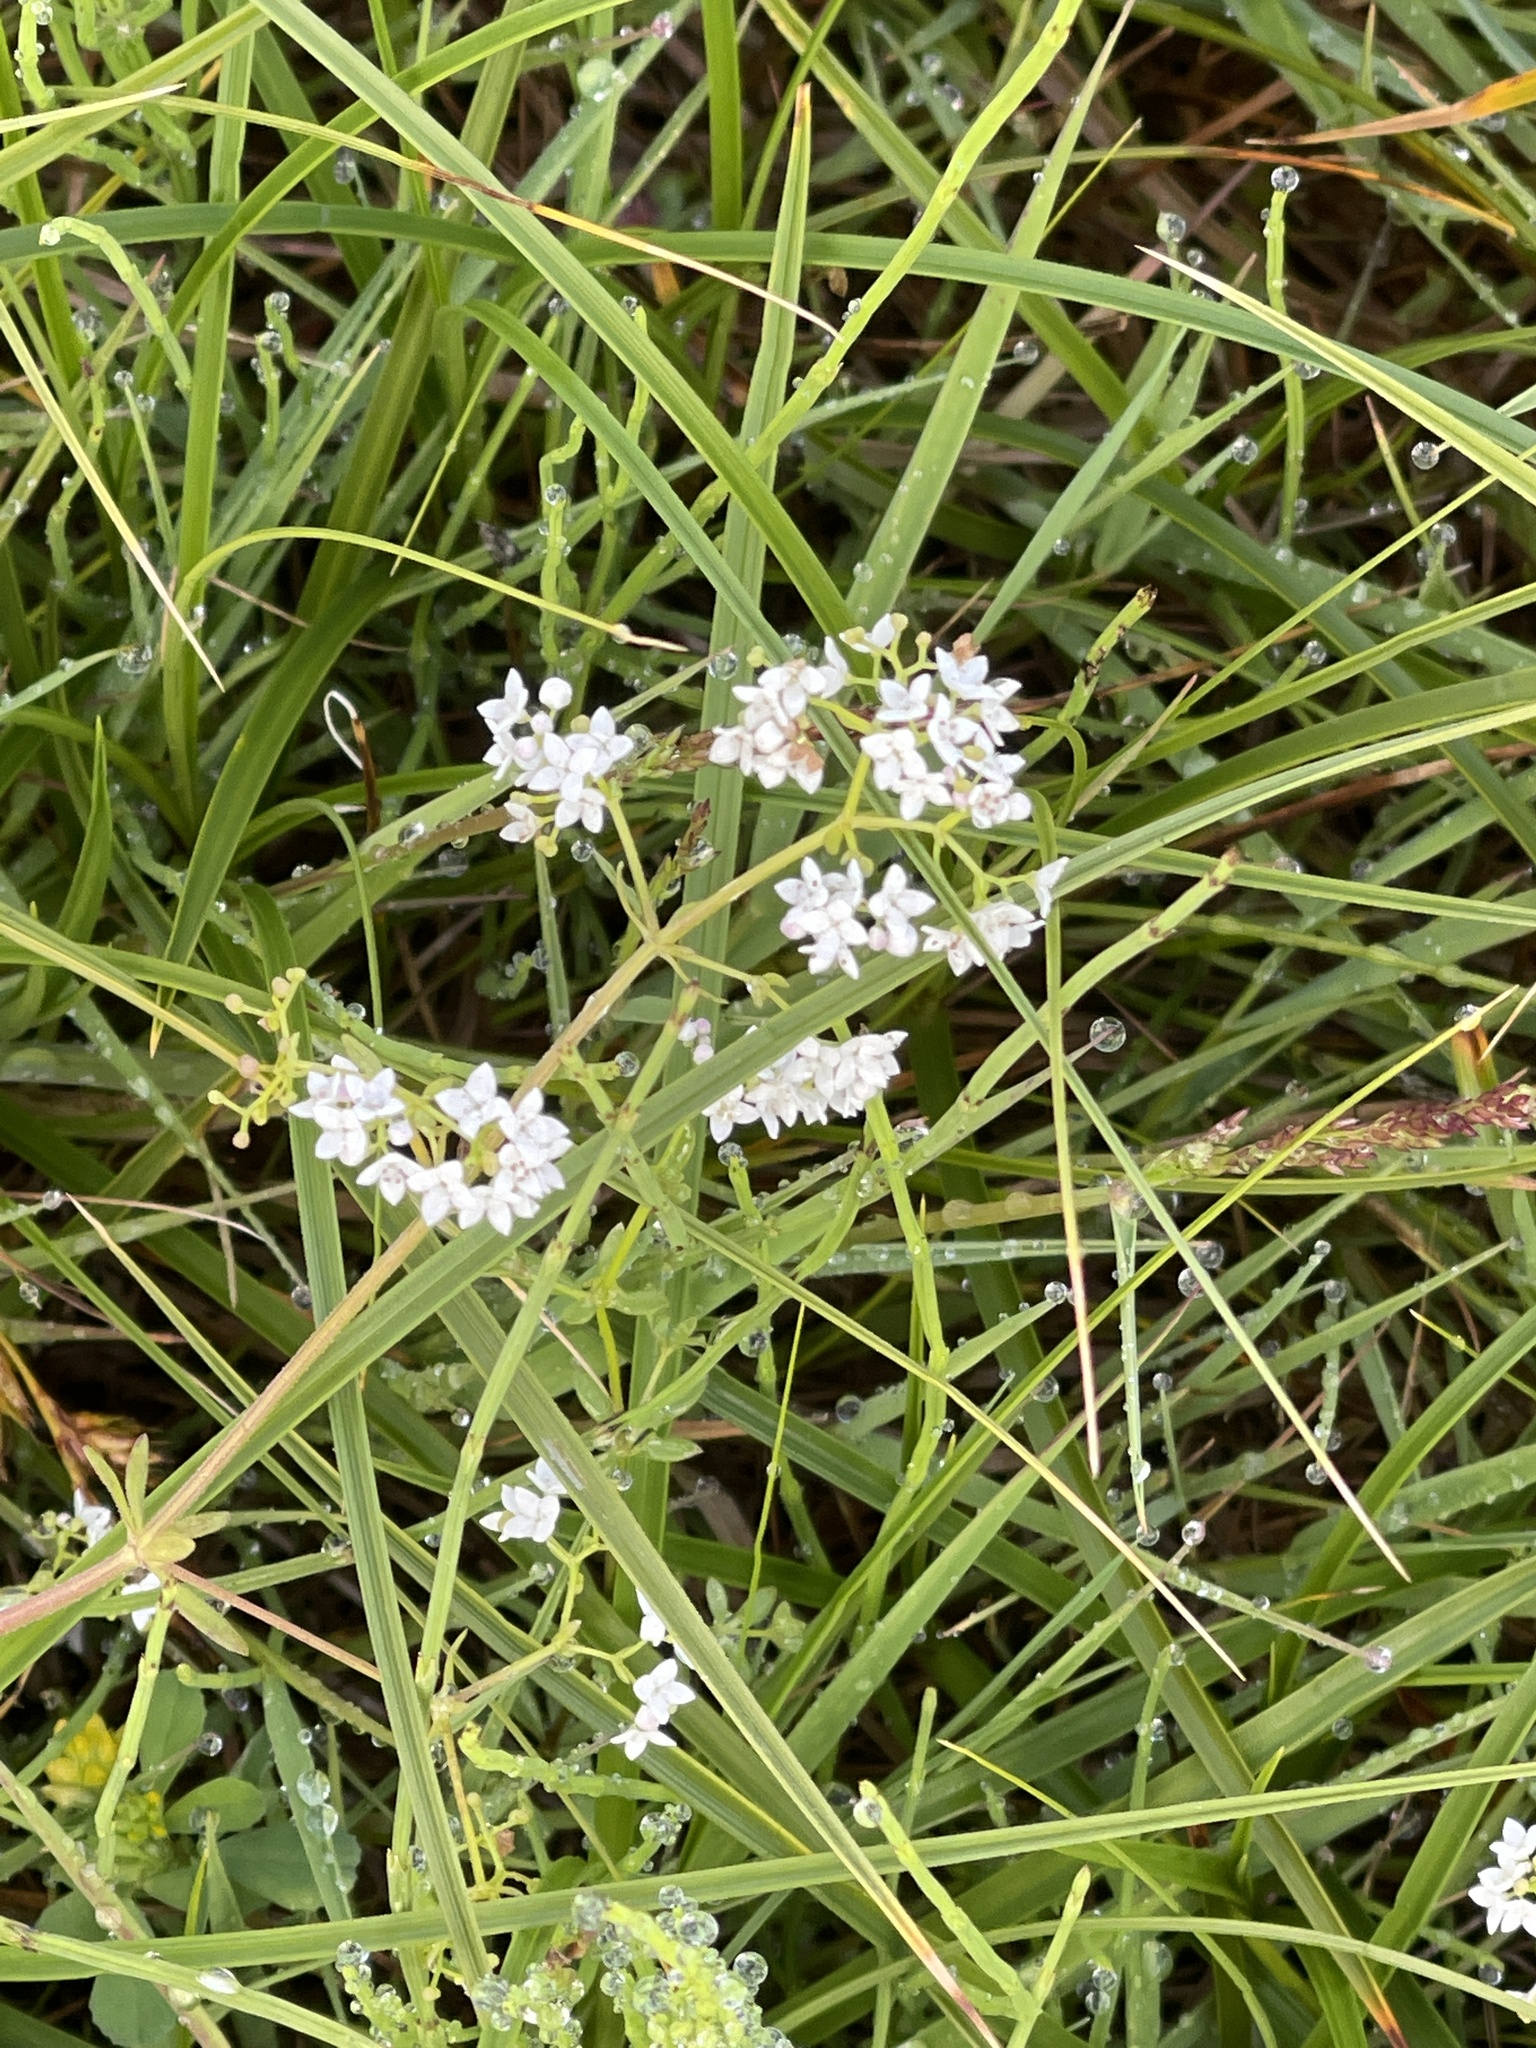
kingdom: Plantae
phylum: Tracheophyta
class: Magnoliopsida
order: Gentianales
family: Rubiaceae
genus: Galium
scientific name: Galium palustre
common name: Common marsh-bedstraw
